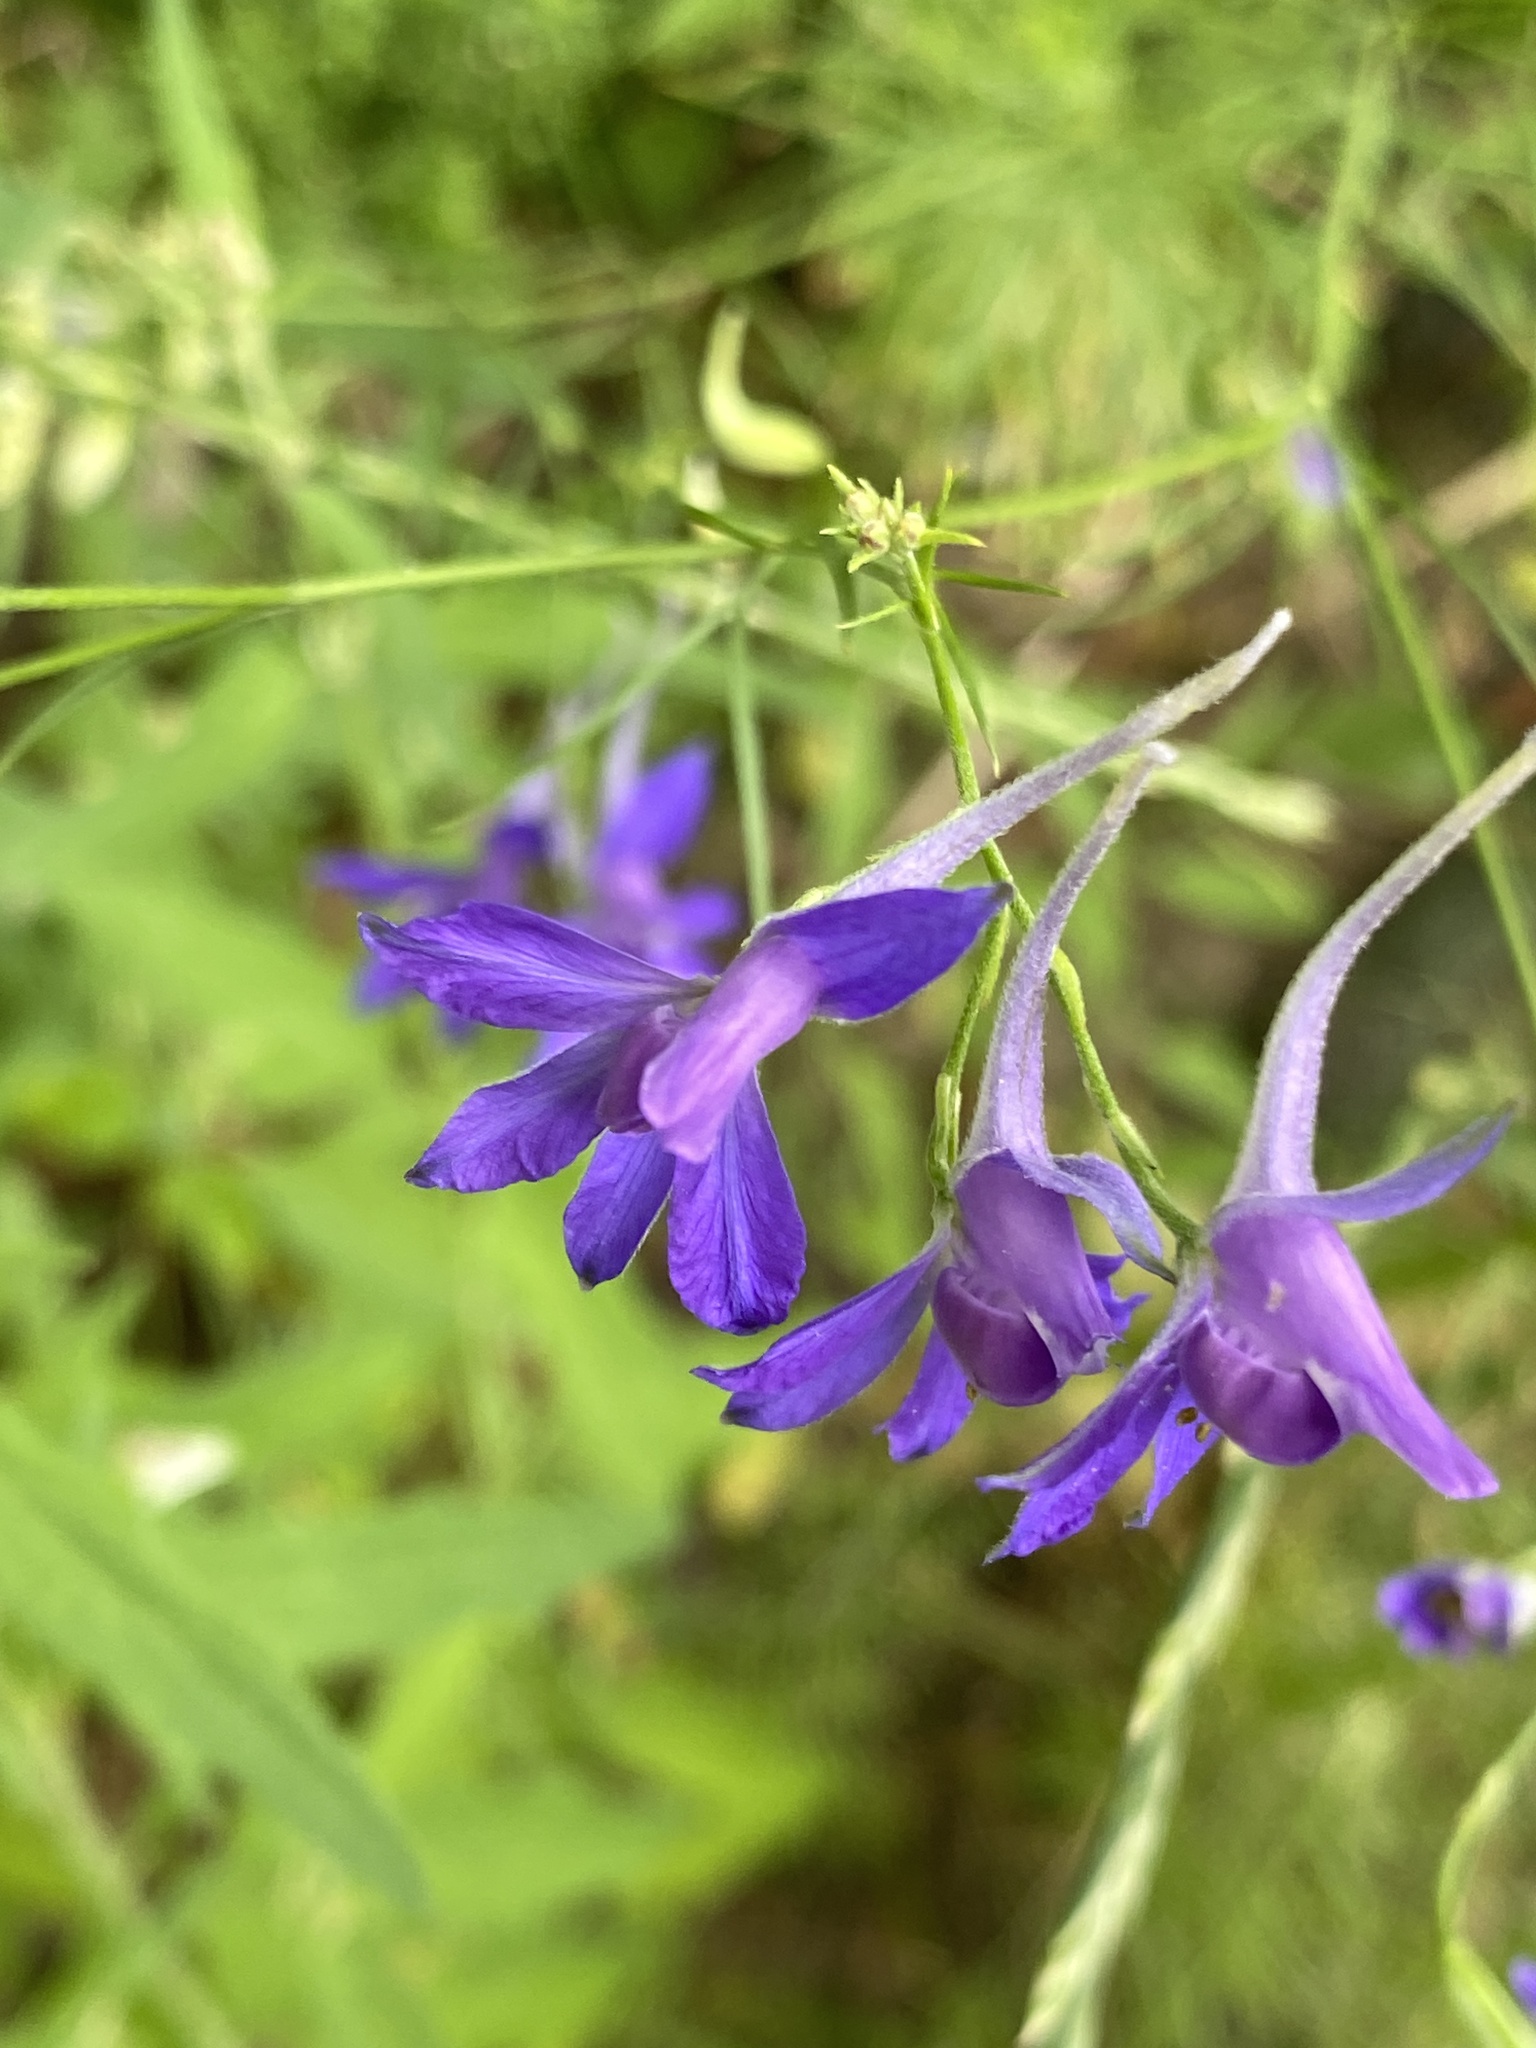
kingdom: Plantae
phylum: Tracheophyta
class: Magnoliopsida
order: Ranunculales
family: Ranunculaceae
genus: Delphinium
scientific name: Delphinium consolida
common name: Branching larkspur
